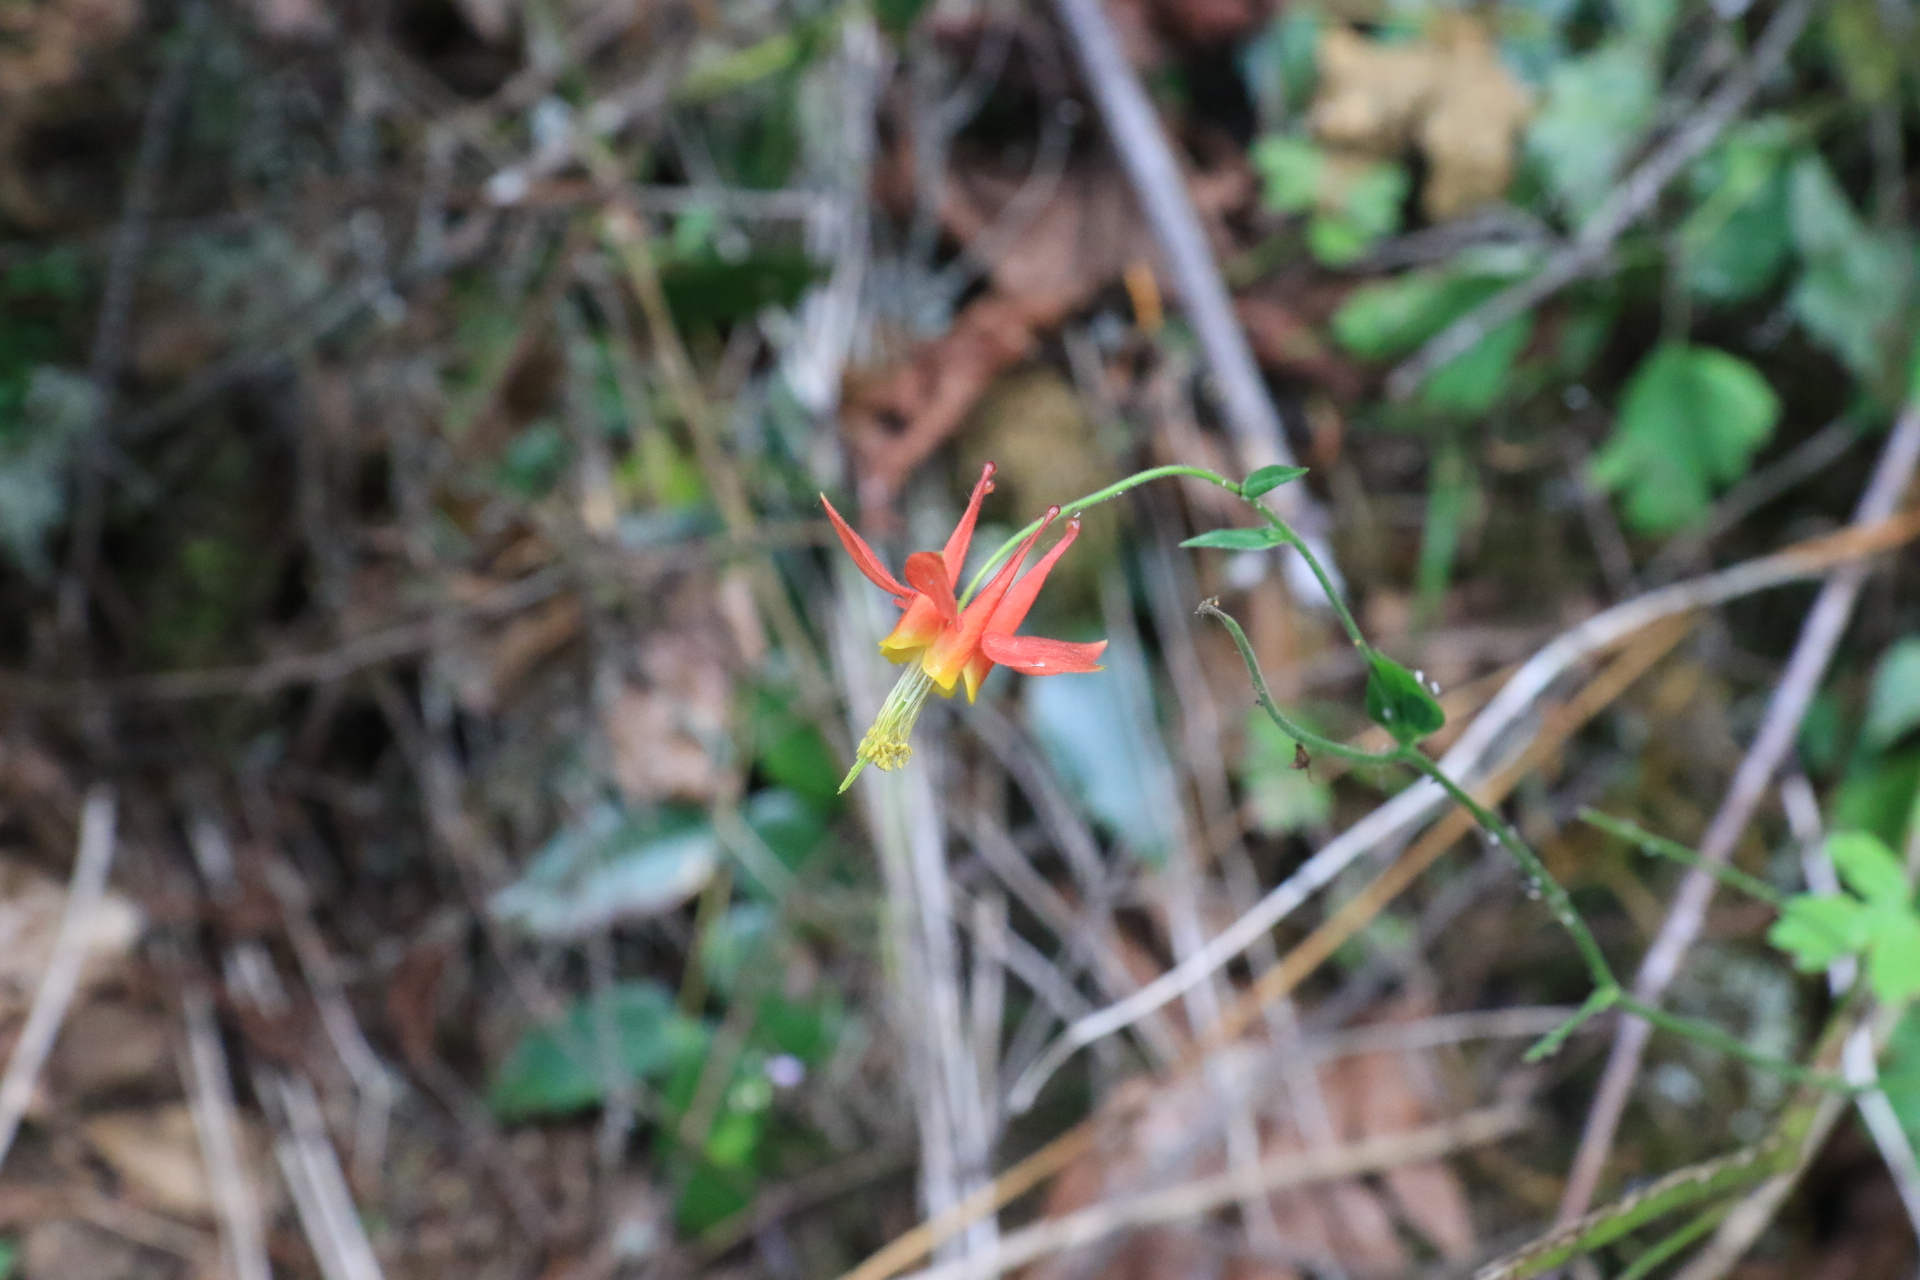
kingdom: Plantae
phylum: Tracheophyta
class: Magnoliopsida
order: Ranunculales
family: Ranunculaceae
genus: Aquilegia
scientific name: Aquilegia formosa
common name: Sitka columbine
